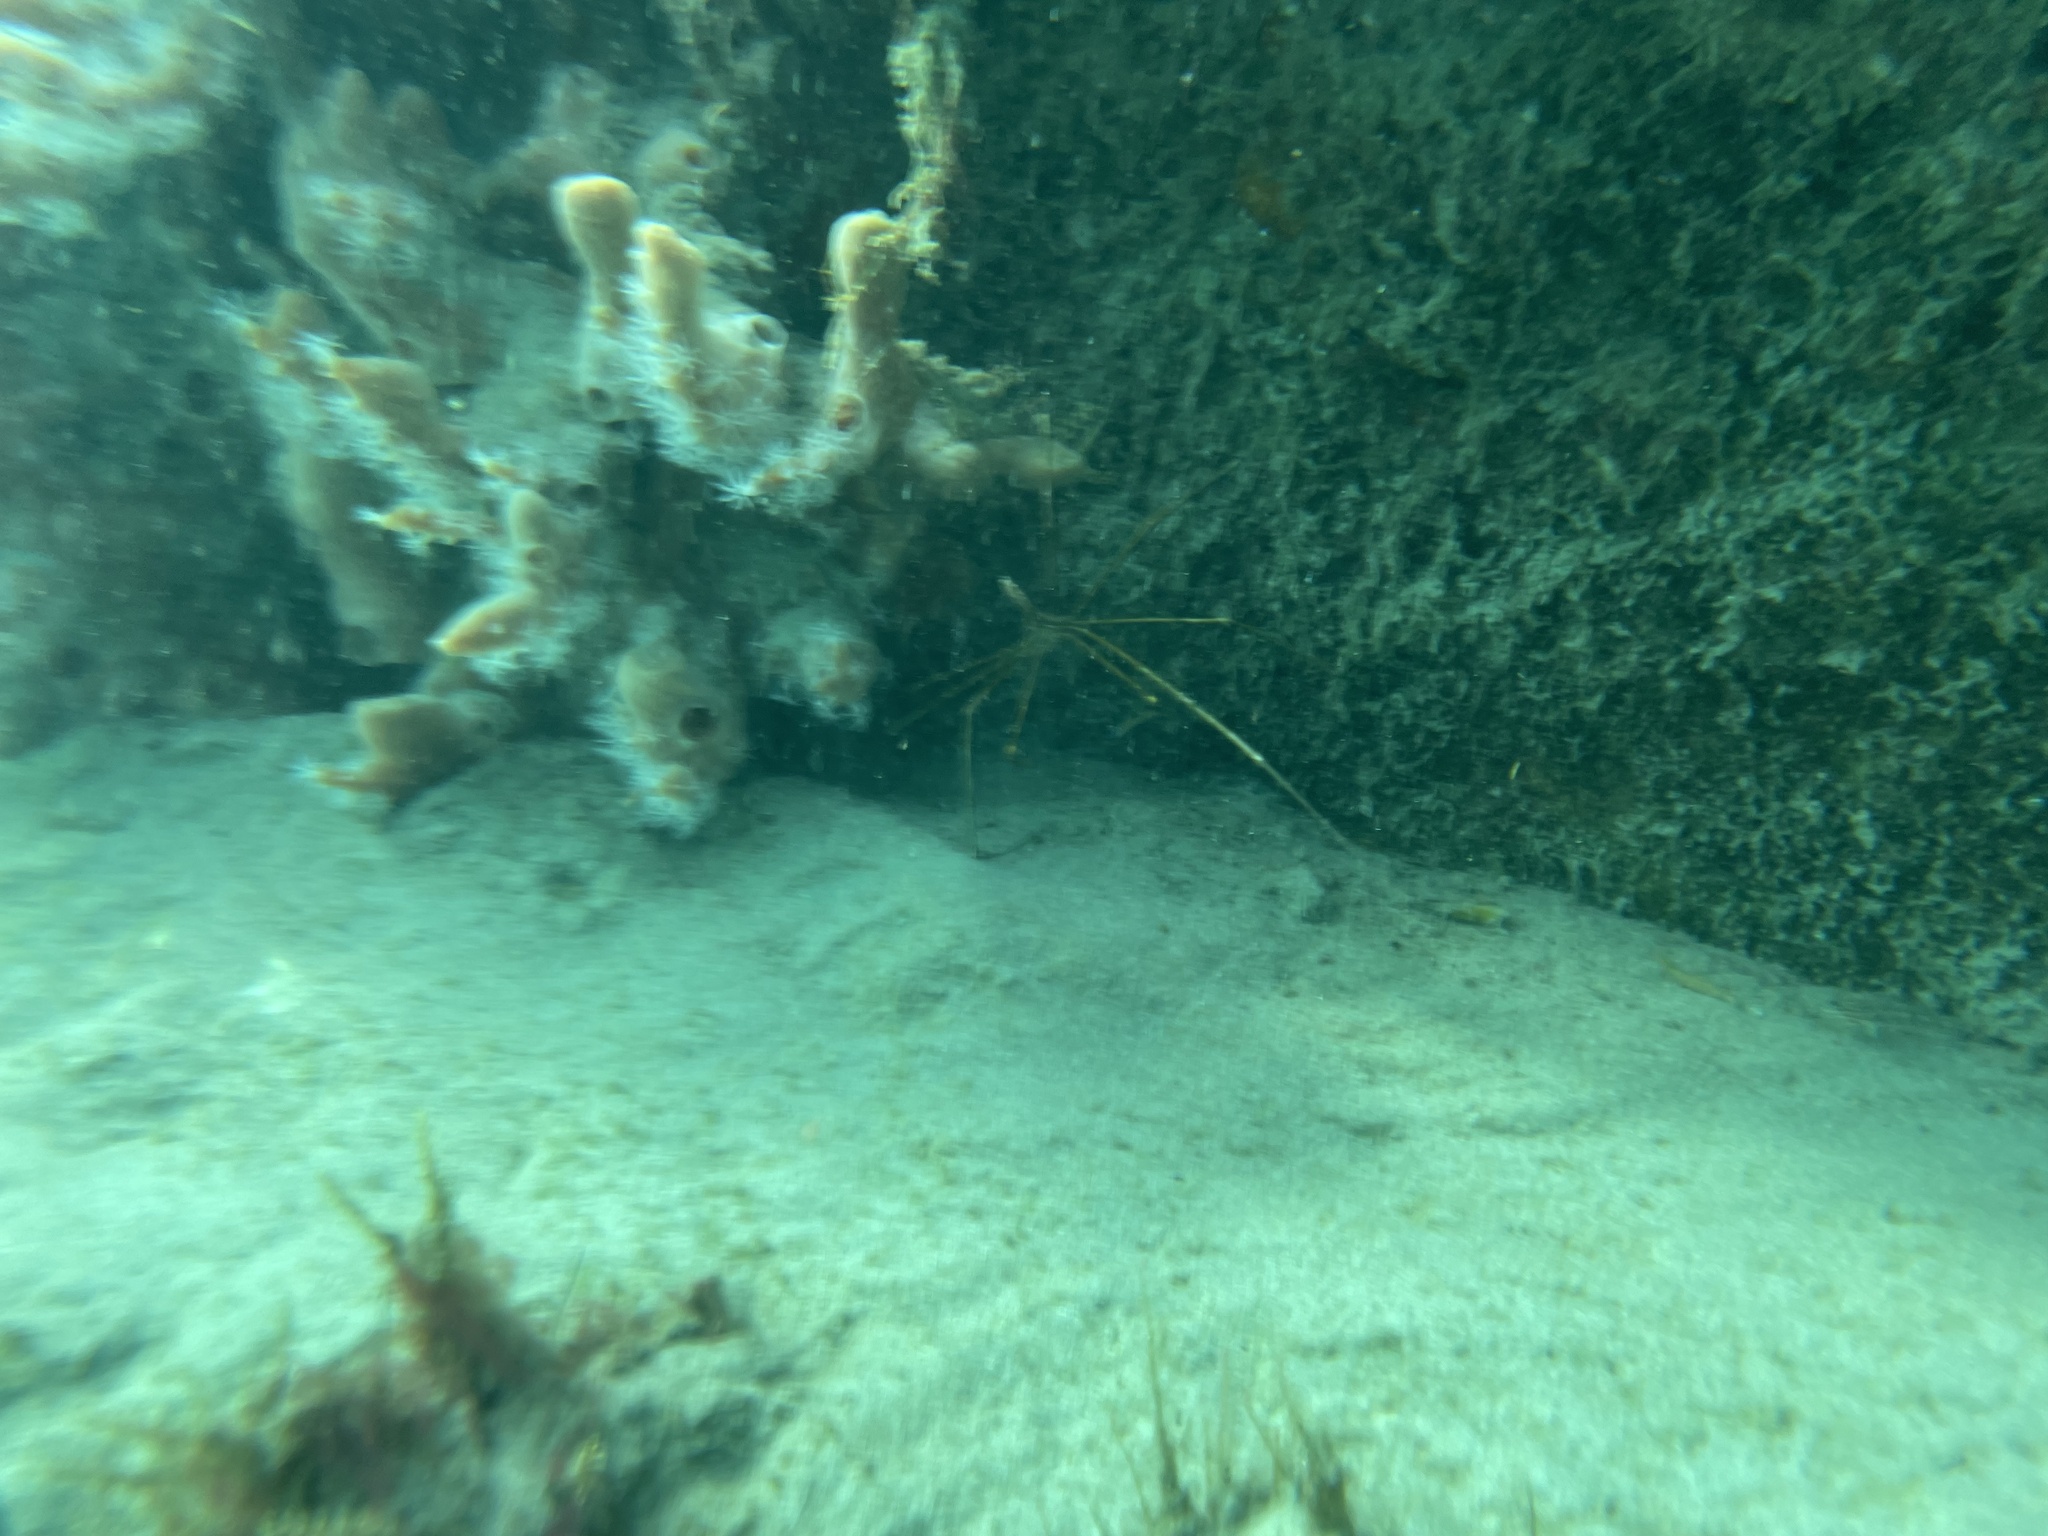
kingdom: Animalia
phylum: Arthropoda
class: Malacostraca
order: Decapoda
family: Inachoididae
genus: Stenorhynchus
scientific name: Stenorhynchus seticornis
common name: Arrow crab
